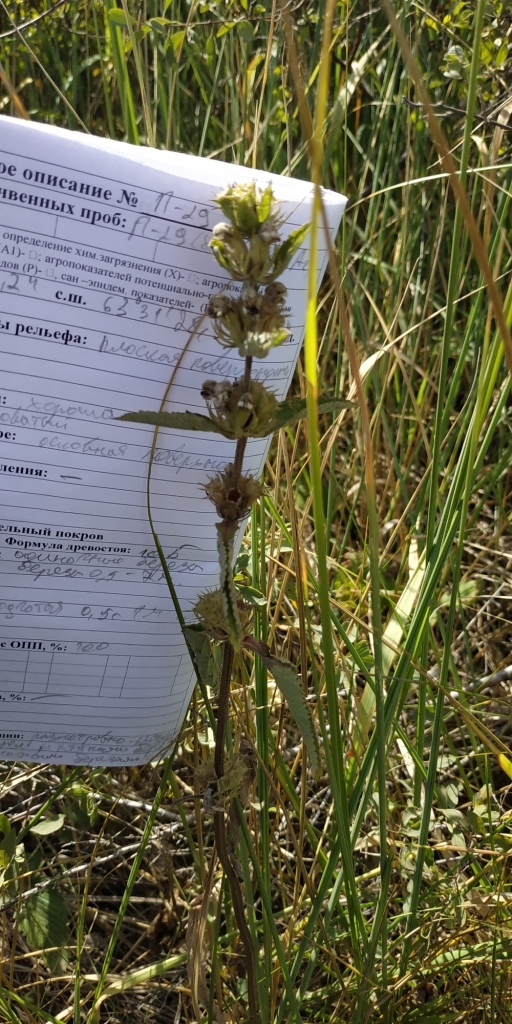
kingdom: Plantae
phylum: Tracheophyta
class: Magnoliopsida
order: Lamiales
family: Lamiaceae
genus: Phlomoides
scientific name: Phlomoides tuberosa
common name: Tuberous jerusalem sage
